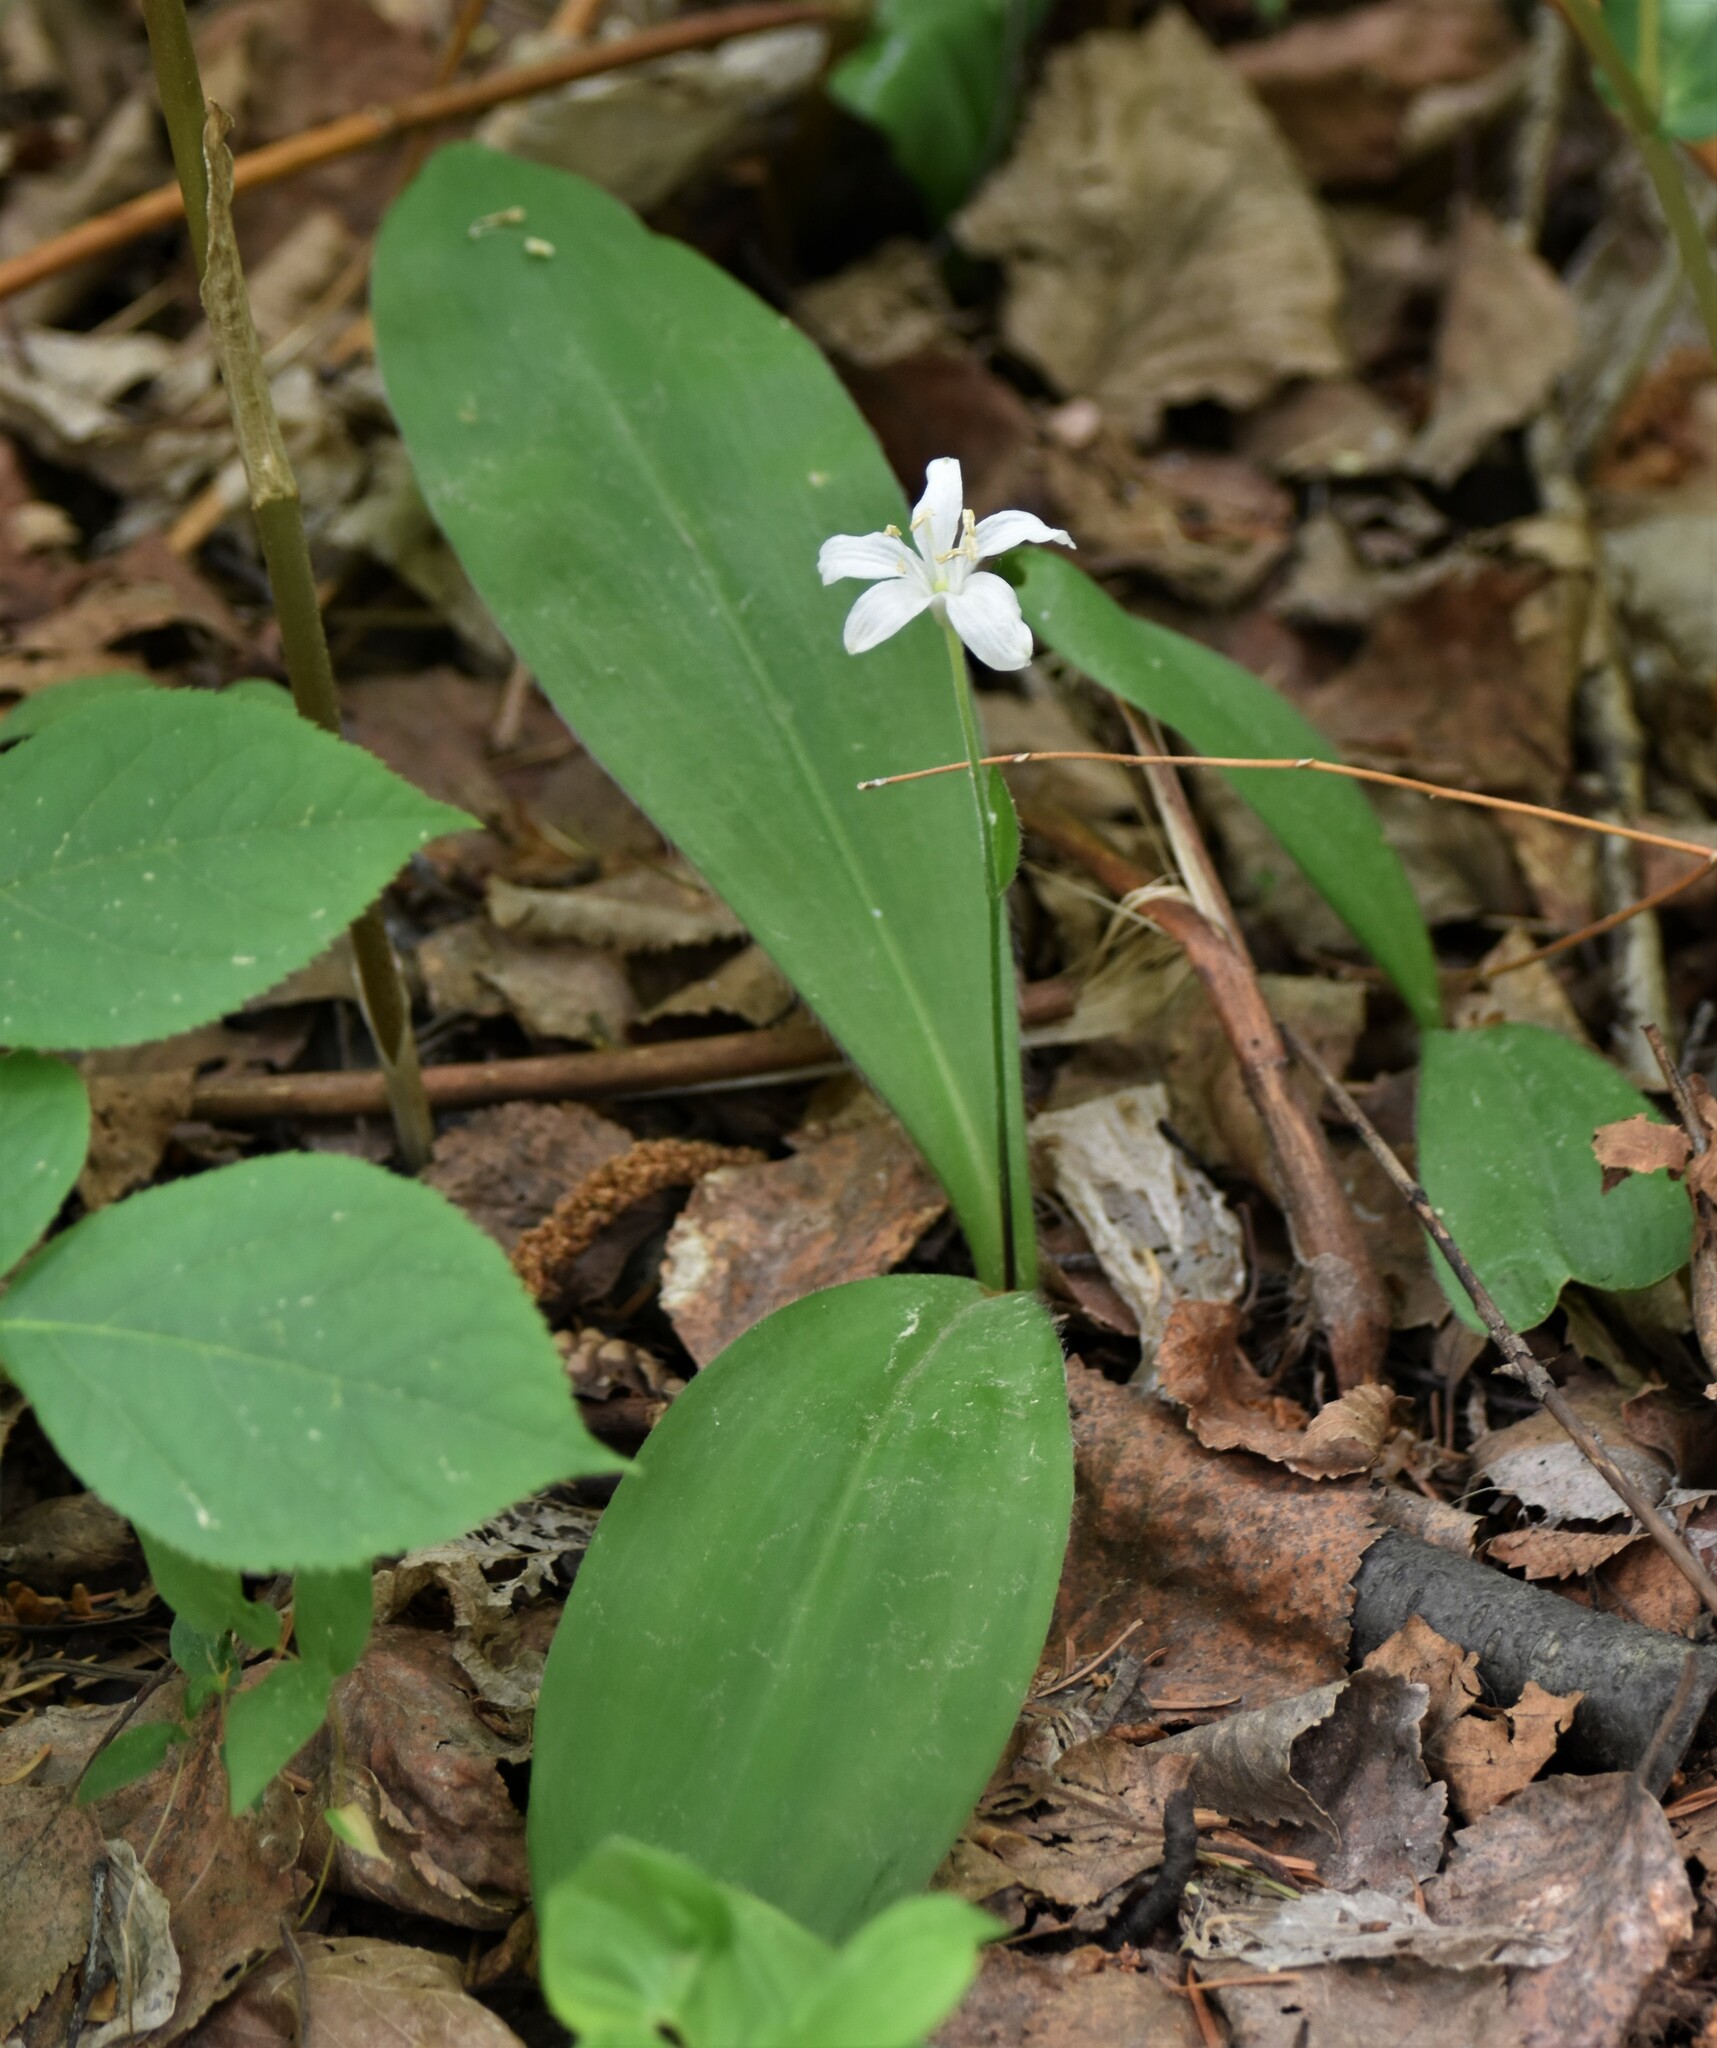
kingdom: Plantae
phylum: Tracheophyta
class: Liliopsida
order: Liliales
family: Liliaceae
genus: Clintonia
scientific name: Clintonia uniflora
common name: Queen's cup
